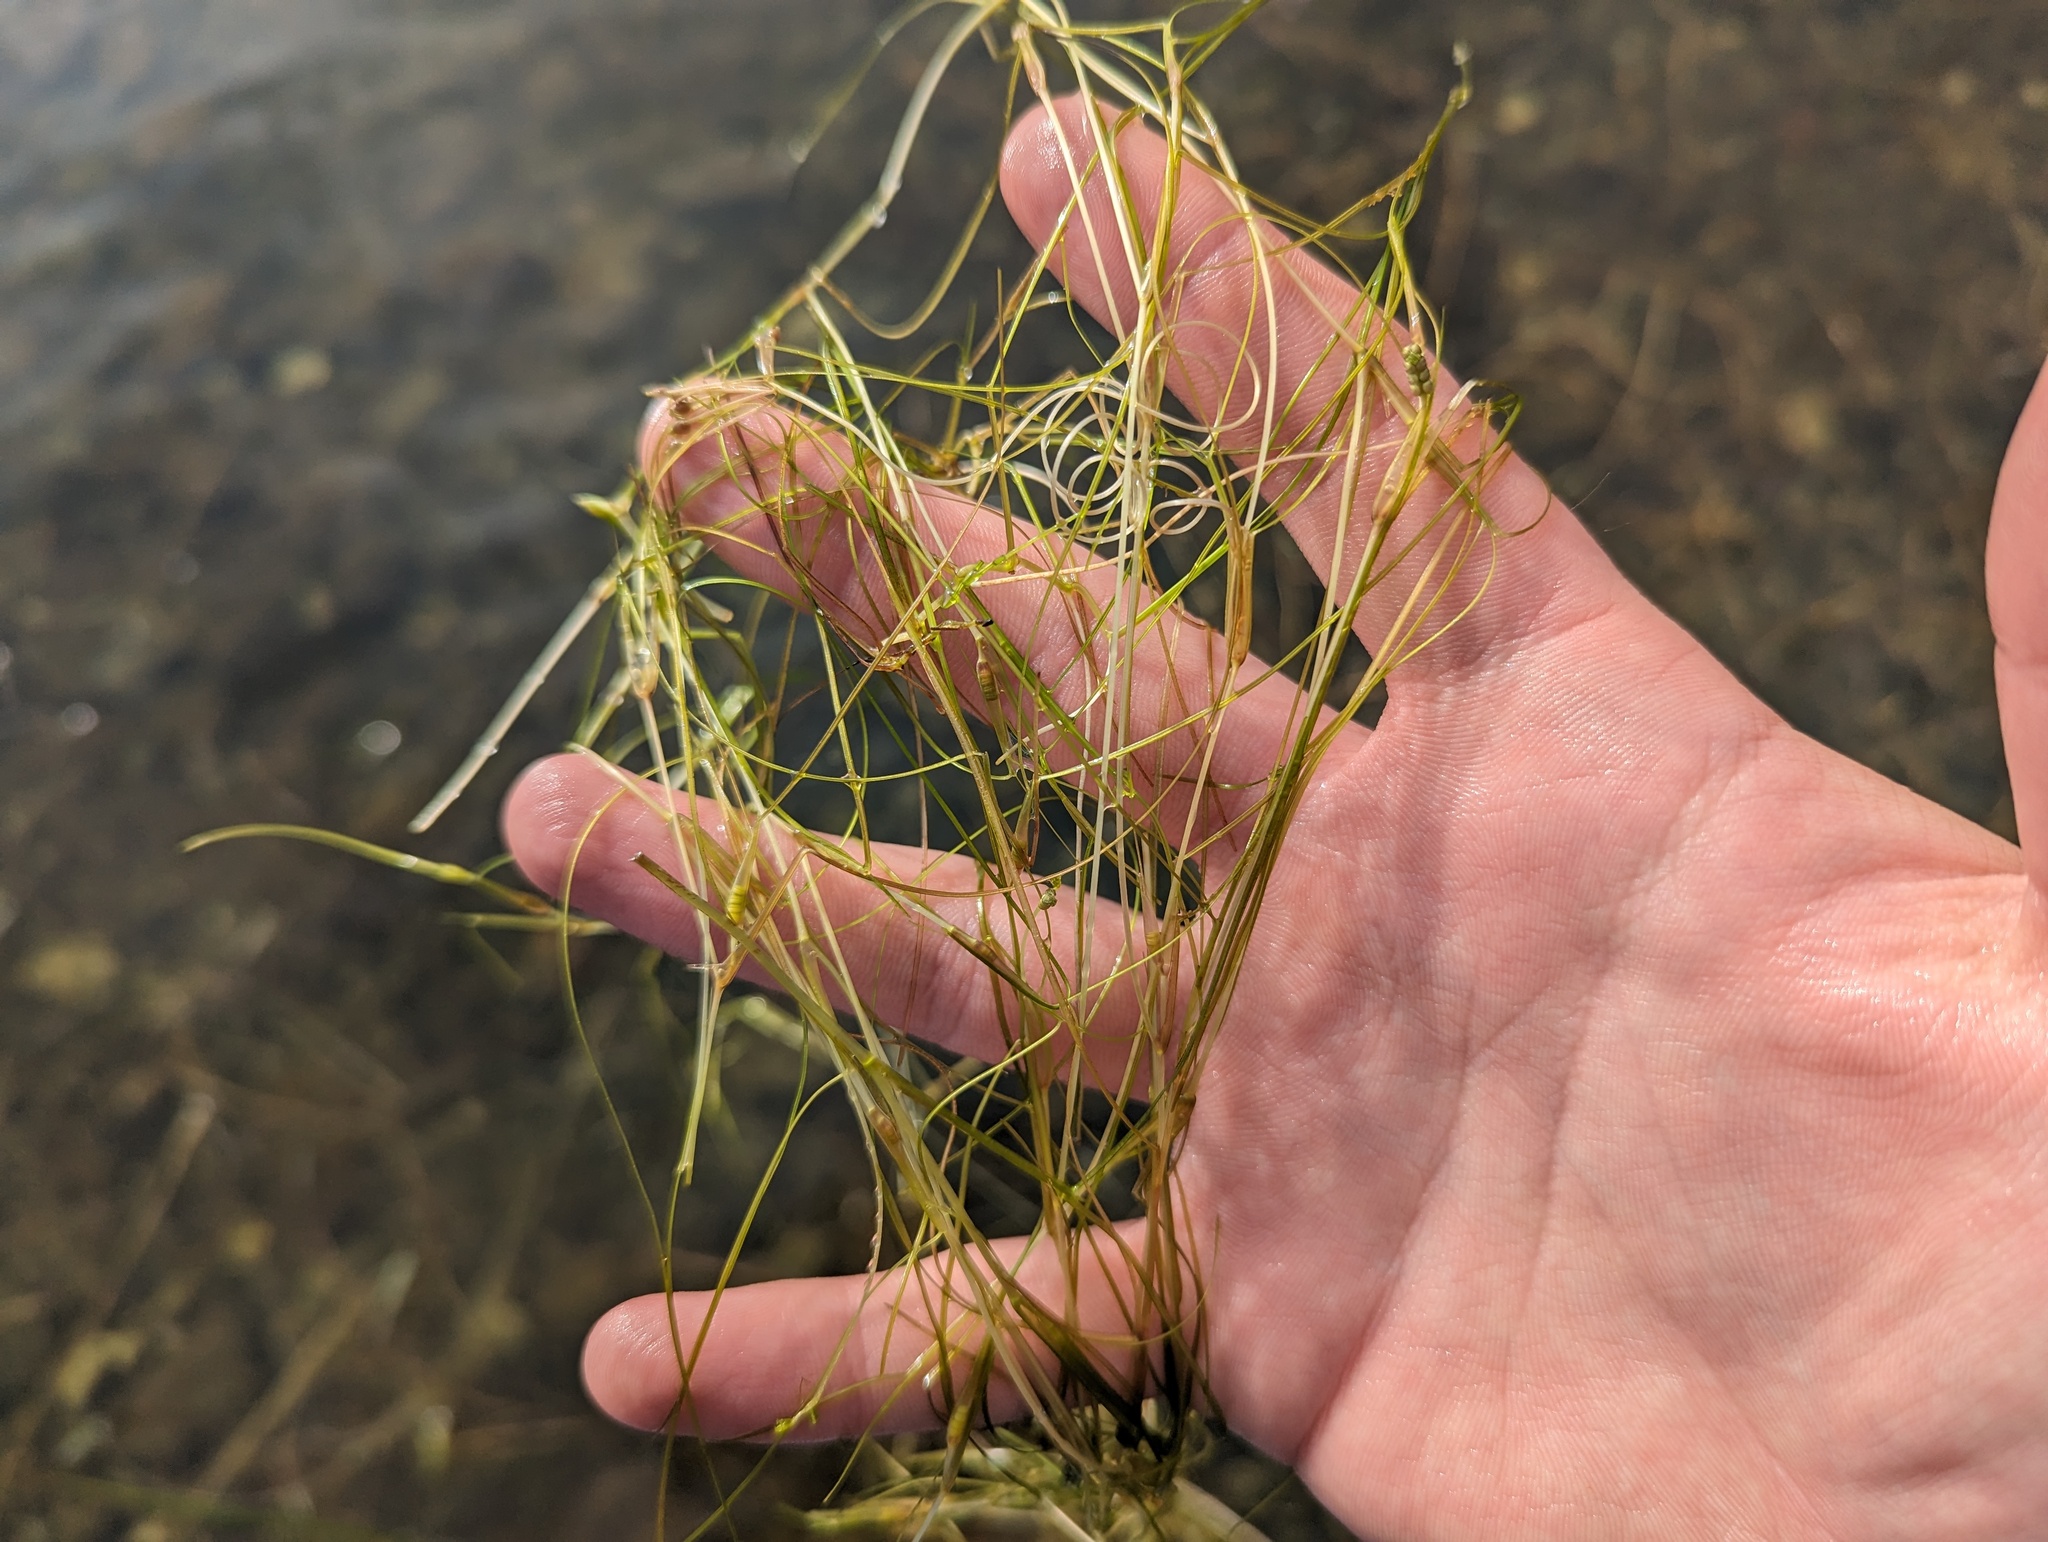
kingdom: Plantae
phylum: Tracheophyta
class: Liliopsida
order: Alismatales
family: Ruppiaceae
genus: Ruppia
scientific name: Ruppia maritima
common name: Beaked tasselweed
